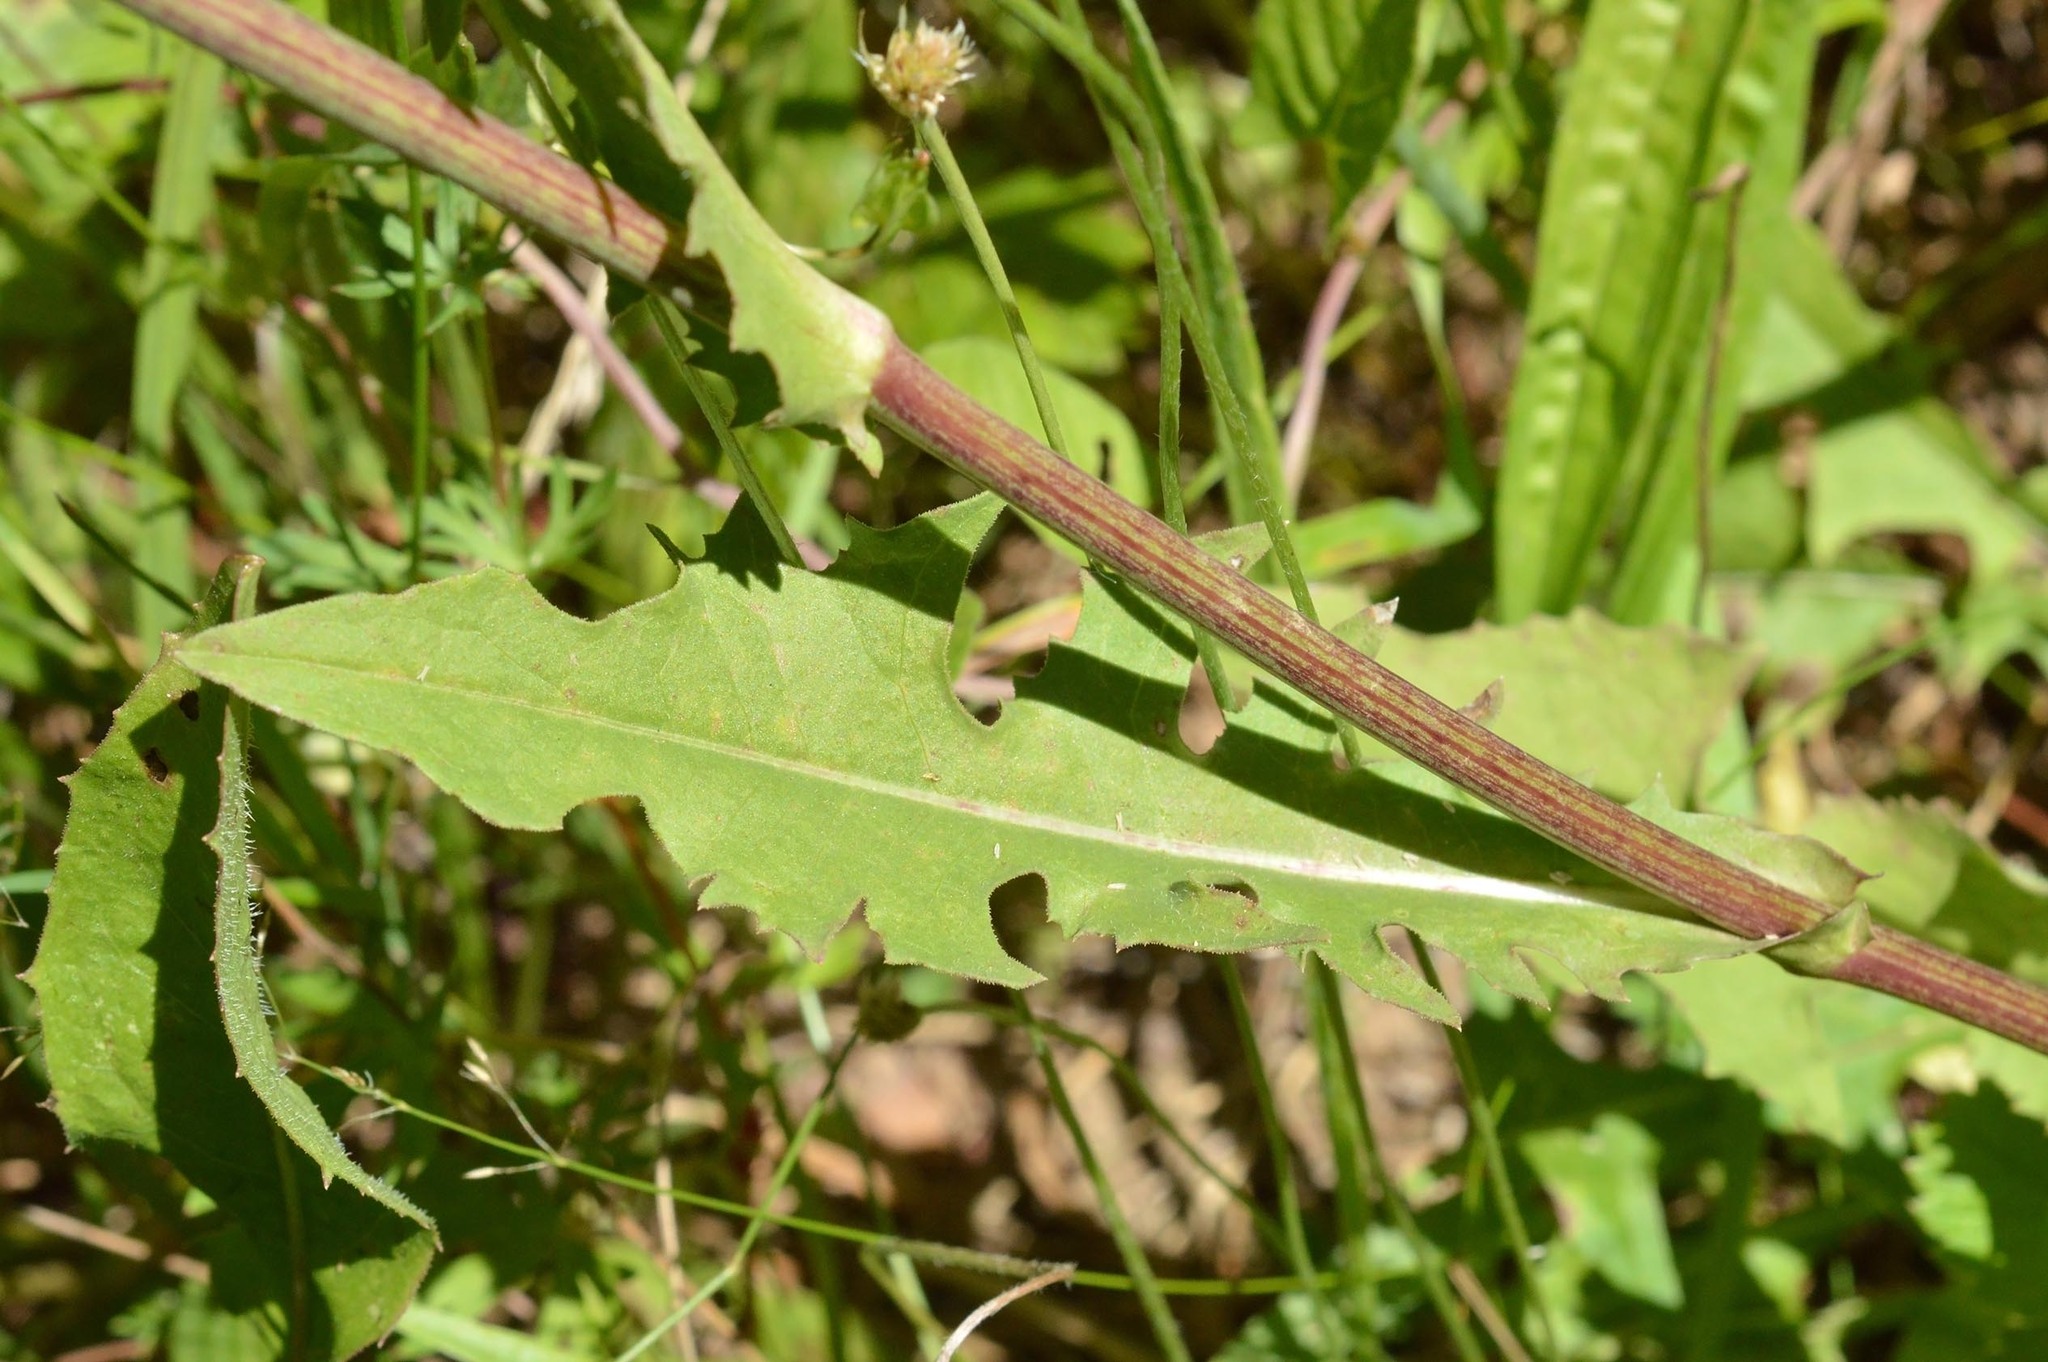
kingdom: Plantae
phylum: Tracheophyta
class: Magnoliopsida
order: Asterales
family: Asteraceae
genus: Cichorium
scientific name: Cichorium intybus
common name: Chicory
